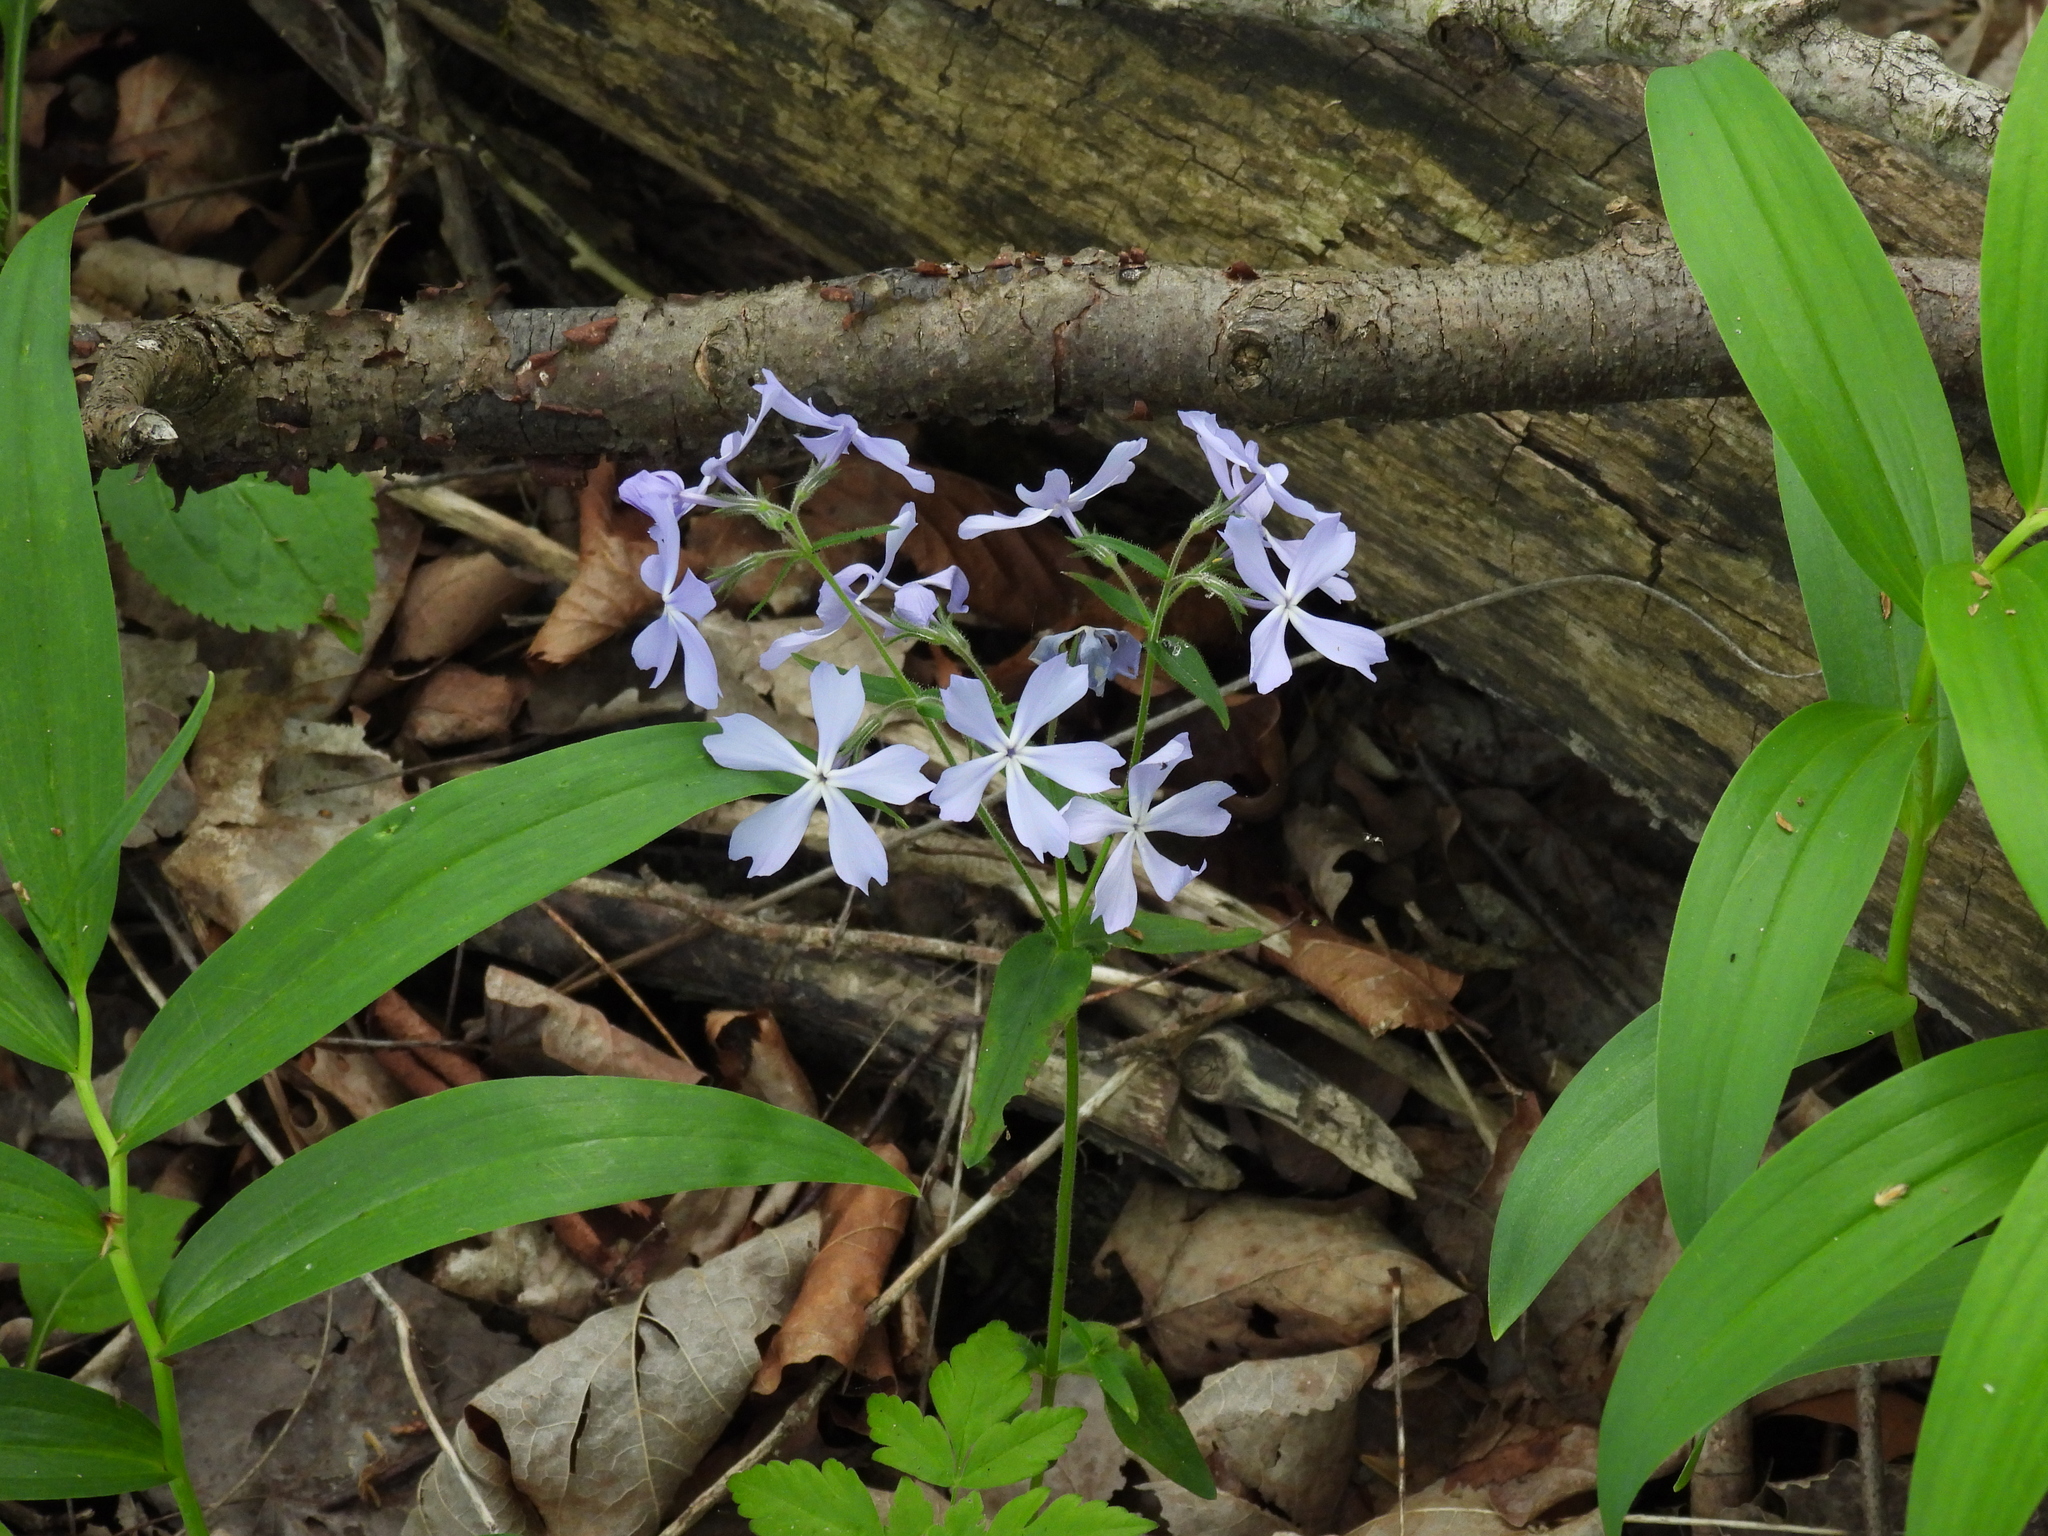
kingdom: Plantae
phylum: Tracheophyta
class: Magnoliopsida
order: Ericales
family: Polemoniaceae
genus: Phlox
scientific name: Phlox divaricata
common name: Blue phlox
